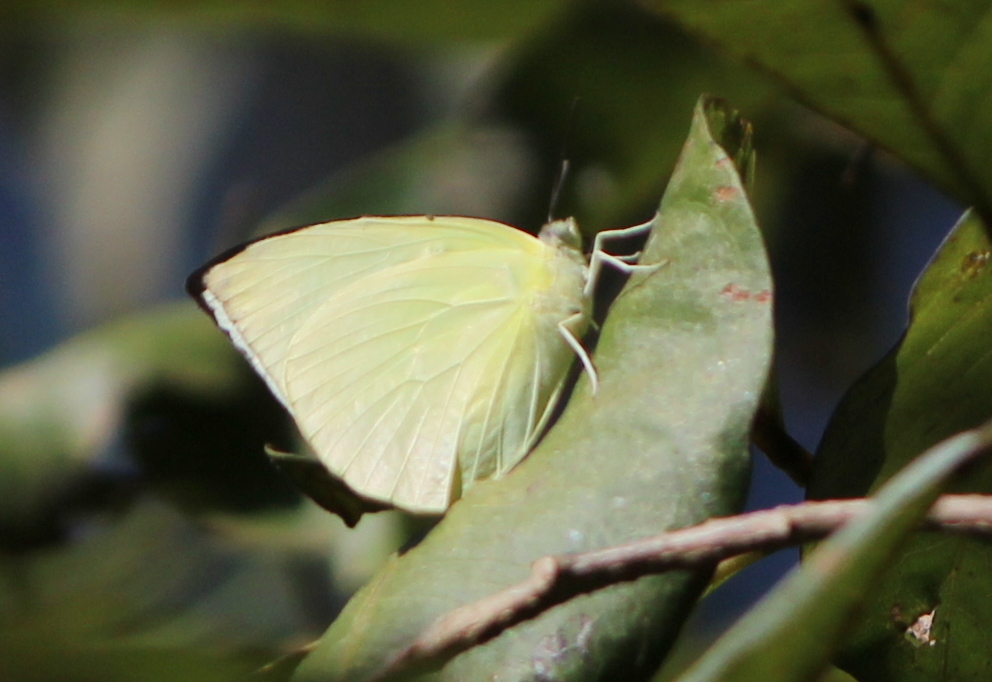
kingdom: Animalia
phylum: Arthropoda
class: Insecta
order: Lepidoptera
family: Pieridae
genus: Catopsilia
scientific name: Catopsilia pomona
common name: Common emigrant
